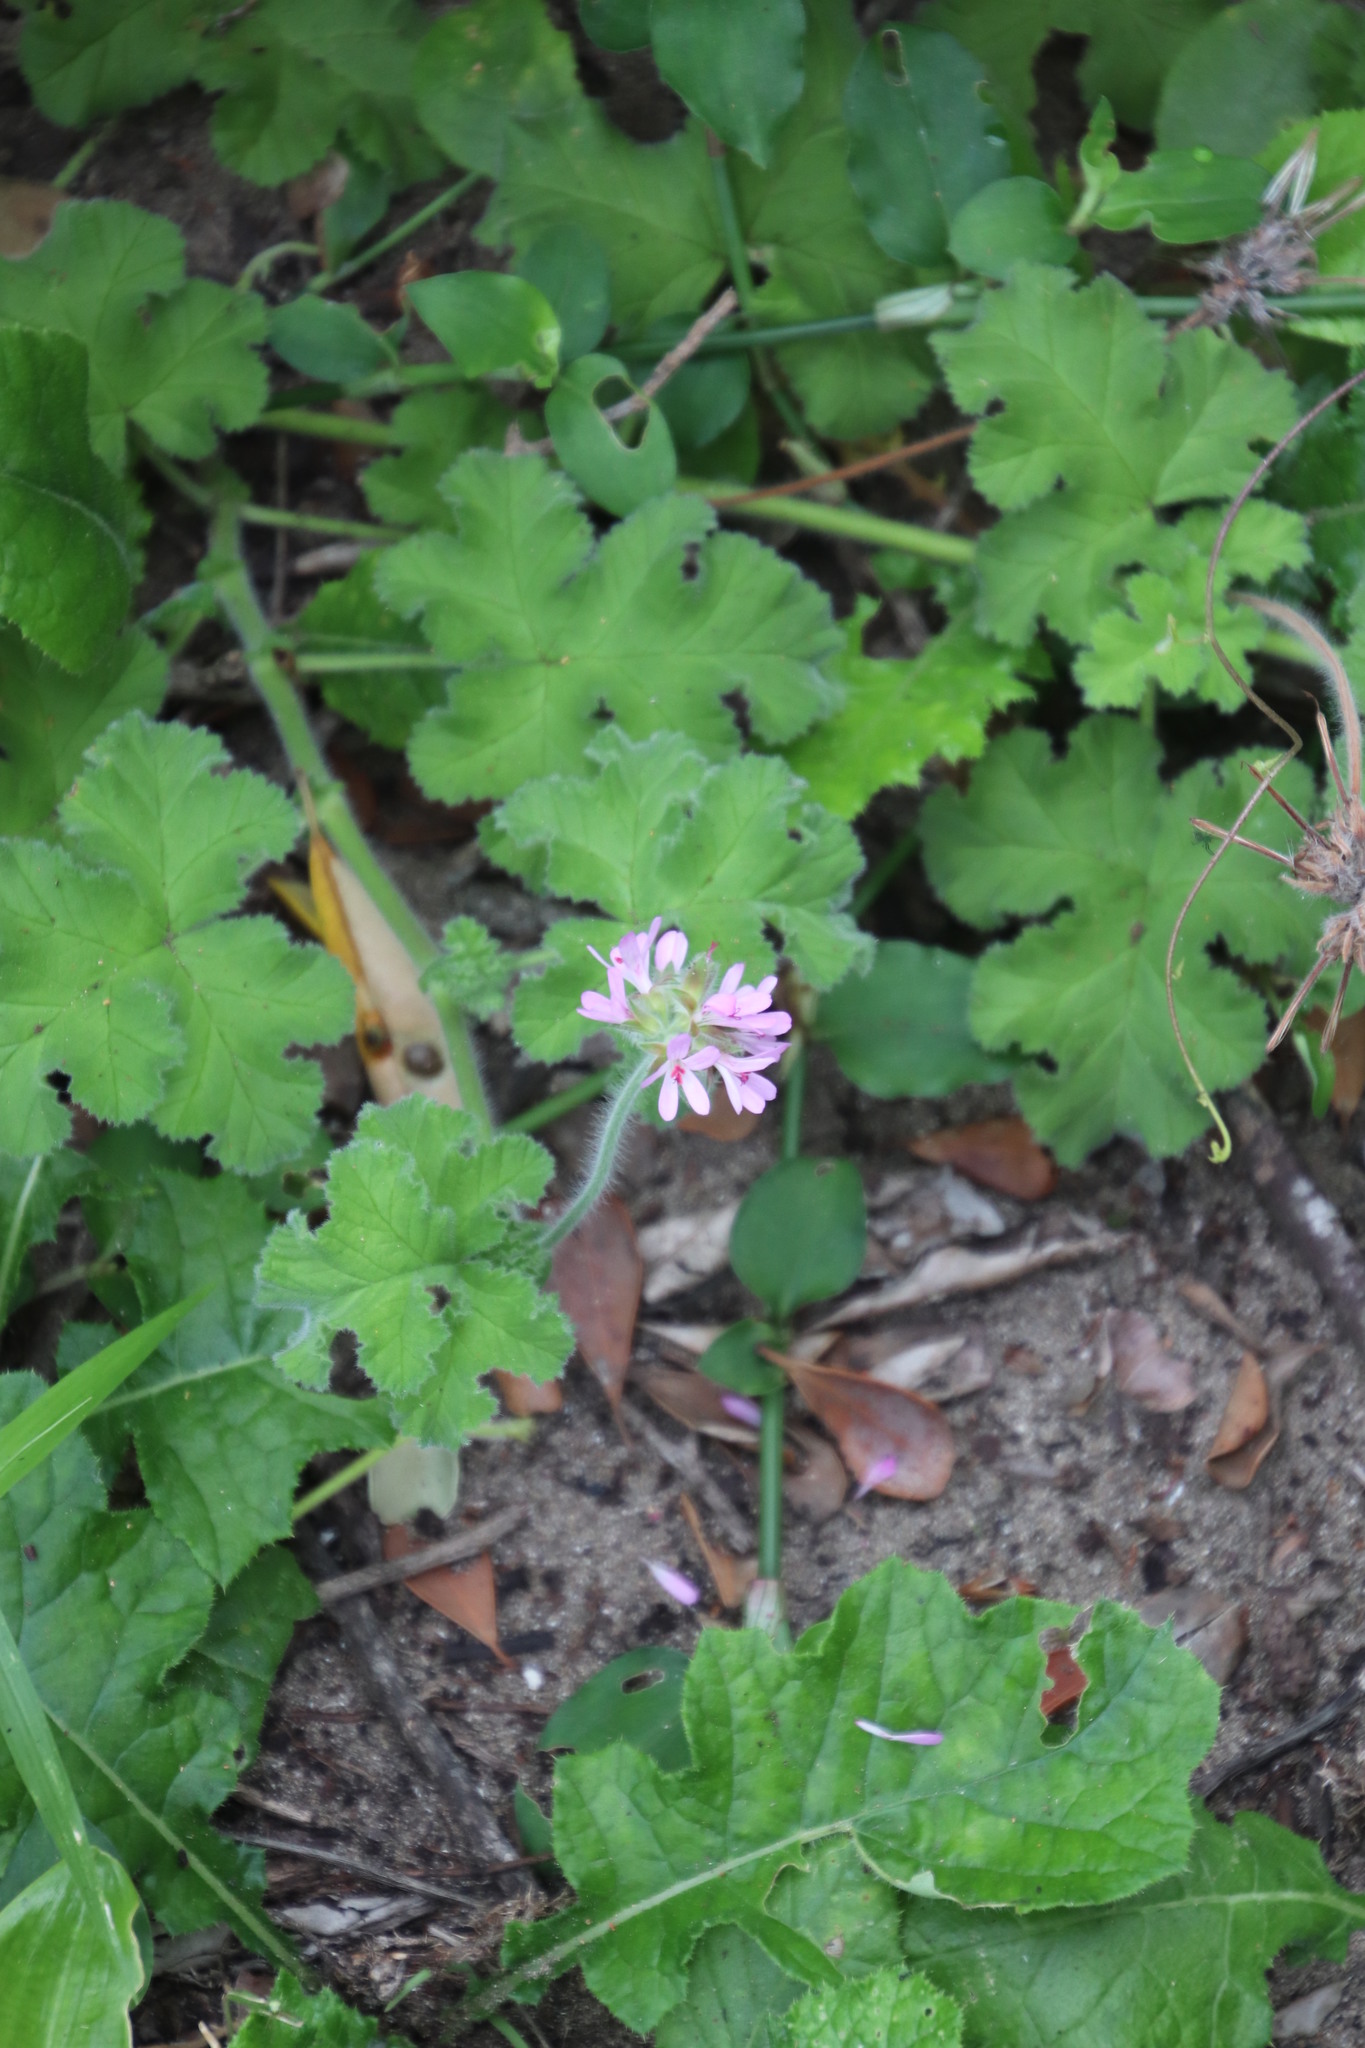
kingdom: Plantae
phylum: Tracheophyta
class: Magnoliopsida
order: Geraniales
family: Geraniaceae
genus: Pelargonium
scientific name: Pelargonium capitatum
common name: Rose scented geranium
